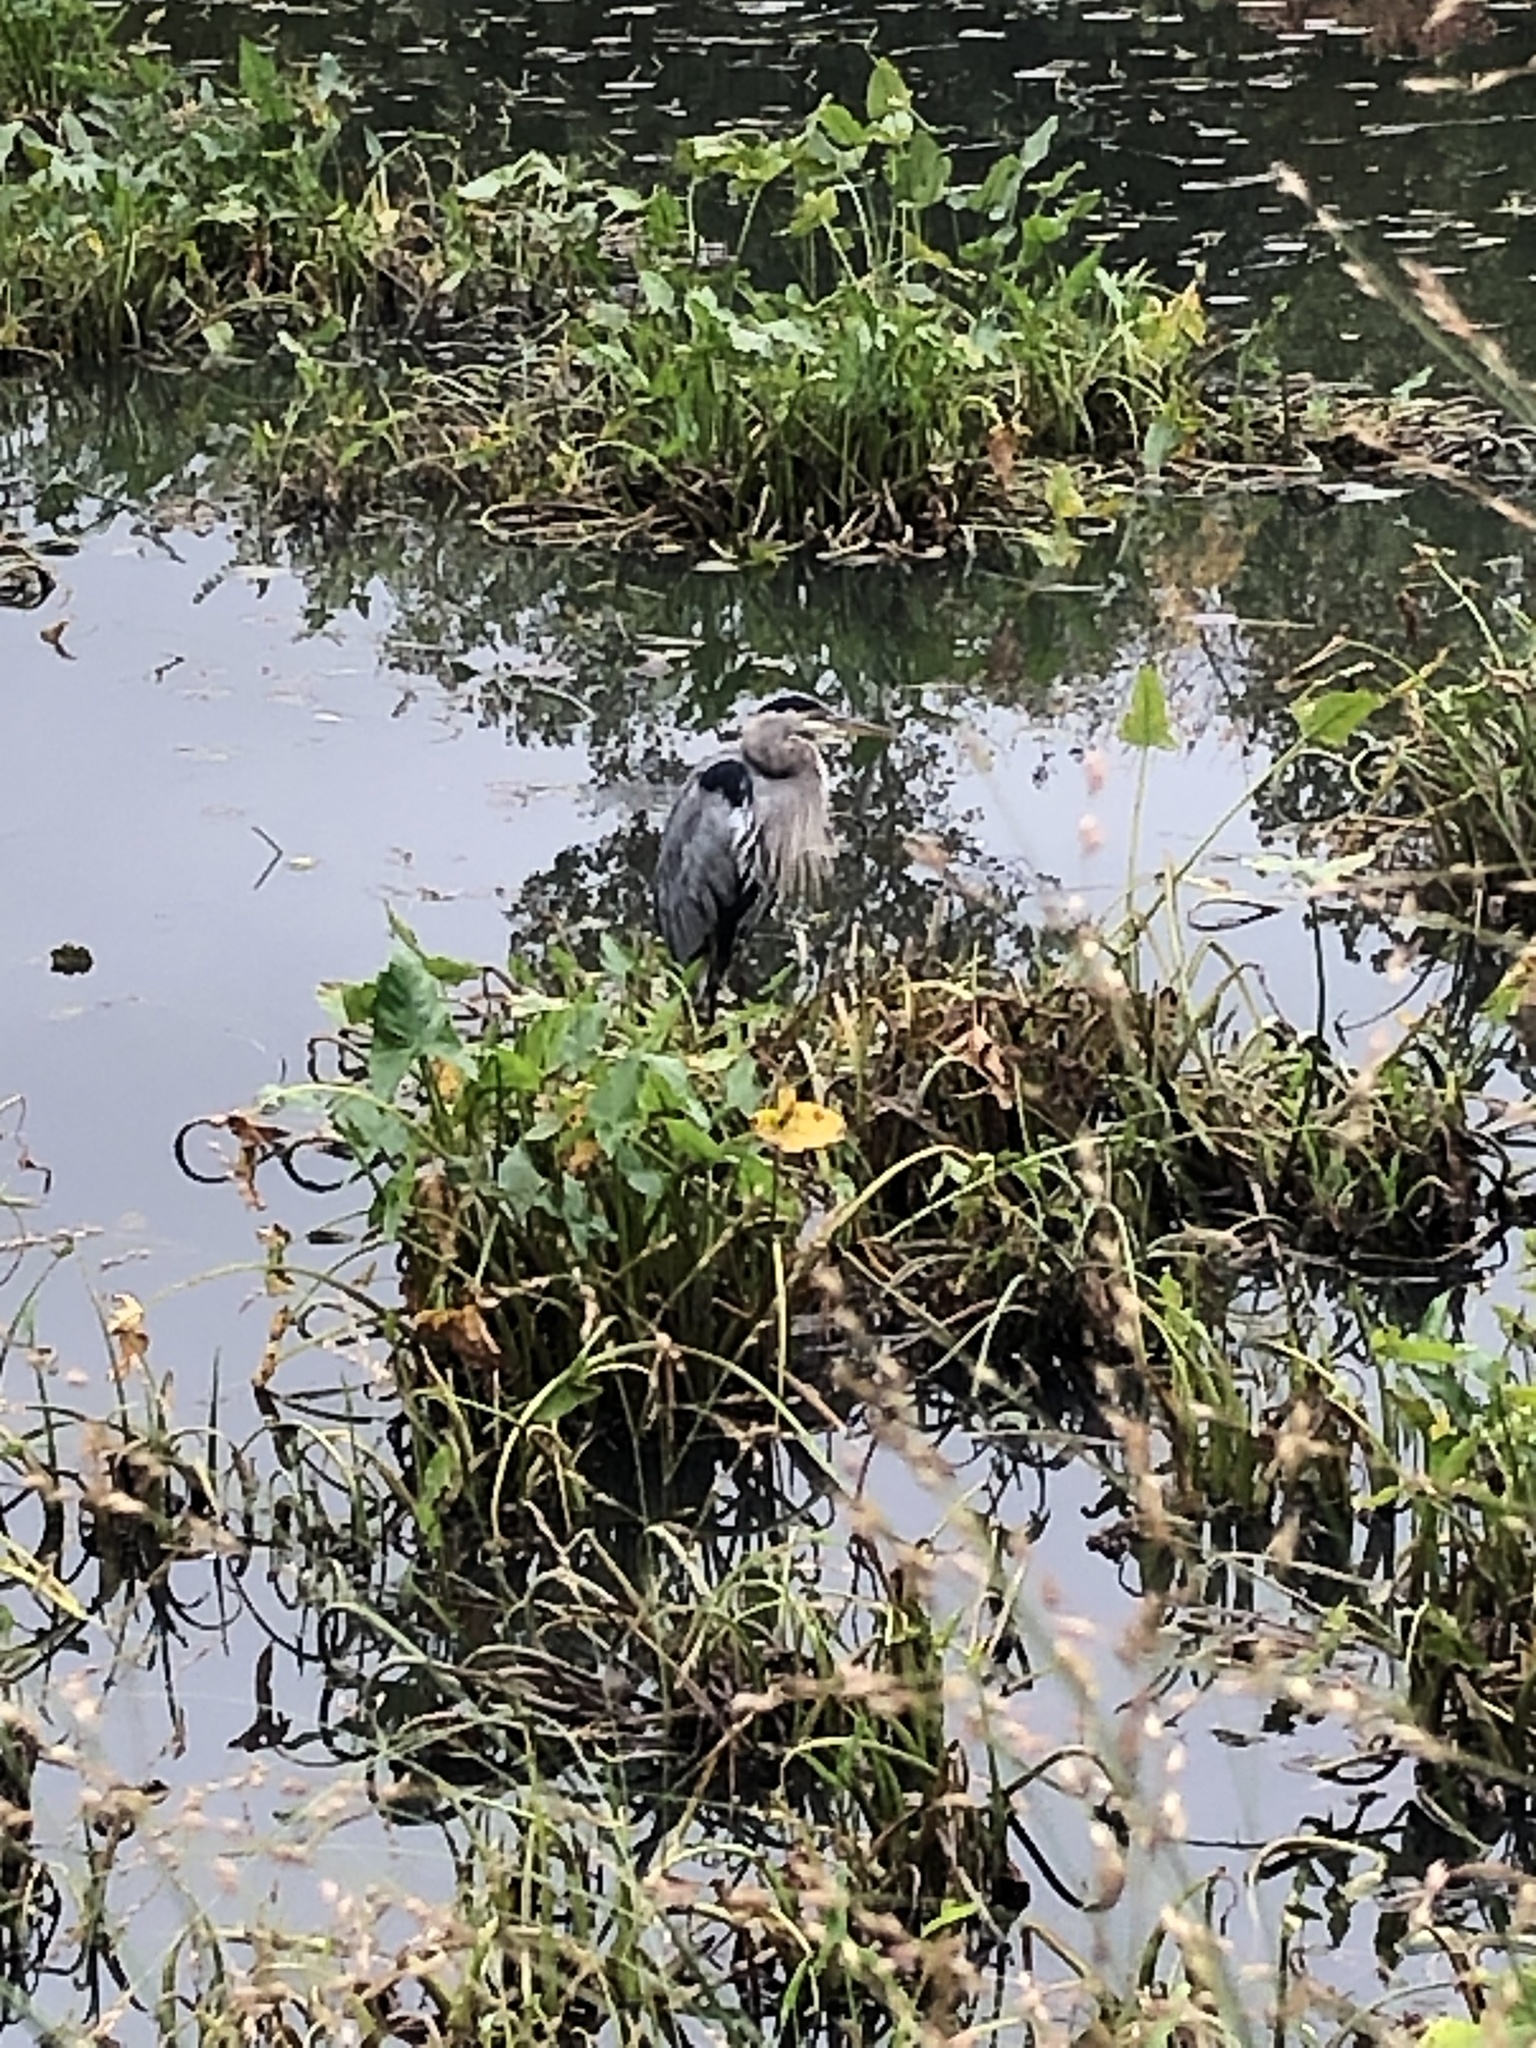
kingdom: Animalia
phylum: Chordata
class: Aves
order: Pelecaniformes
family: Ardeidae
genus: Ardea
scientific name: Ardea herodias
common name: Great blue heron
